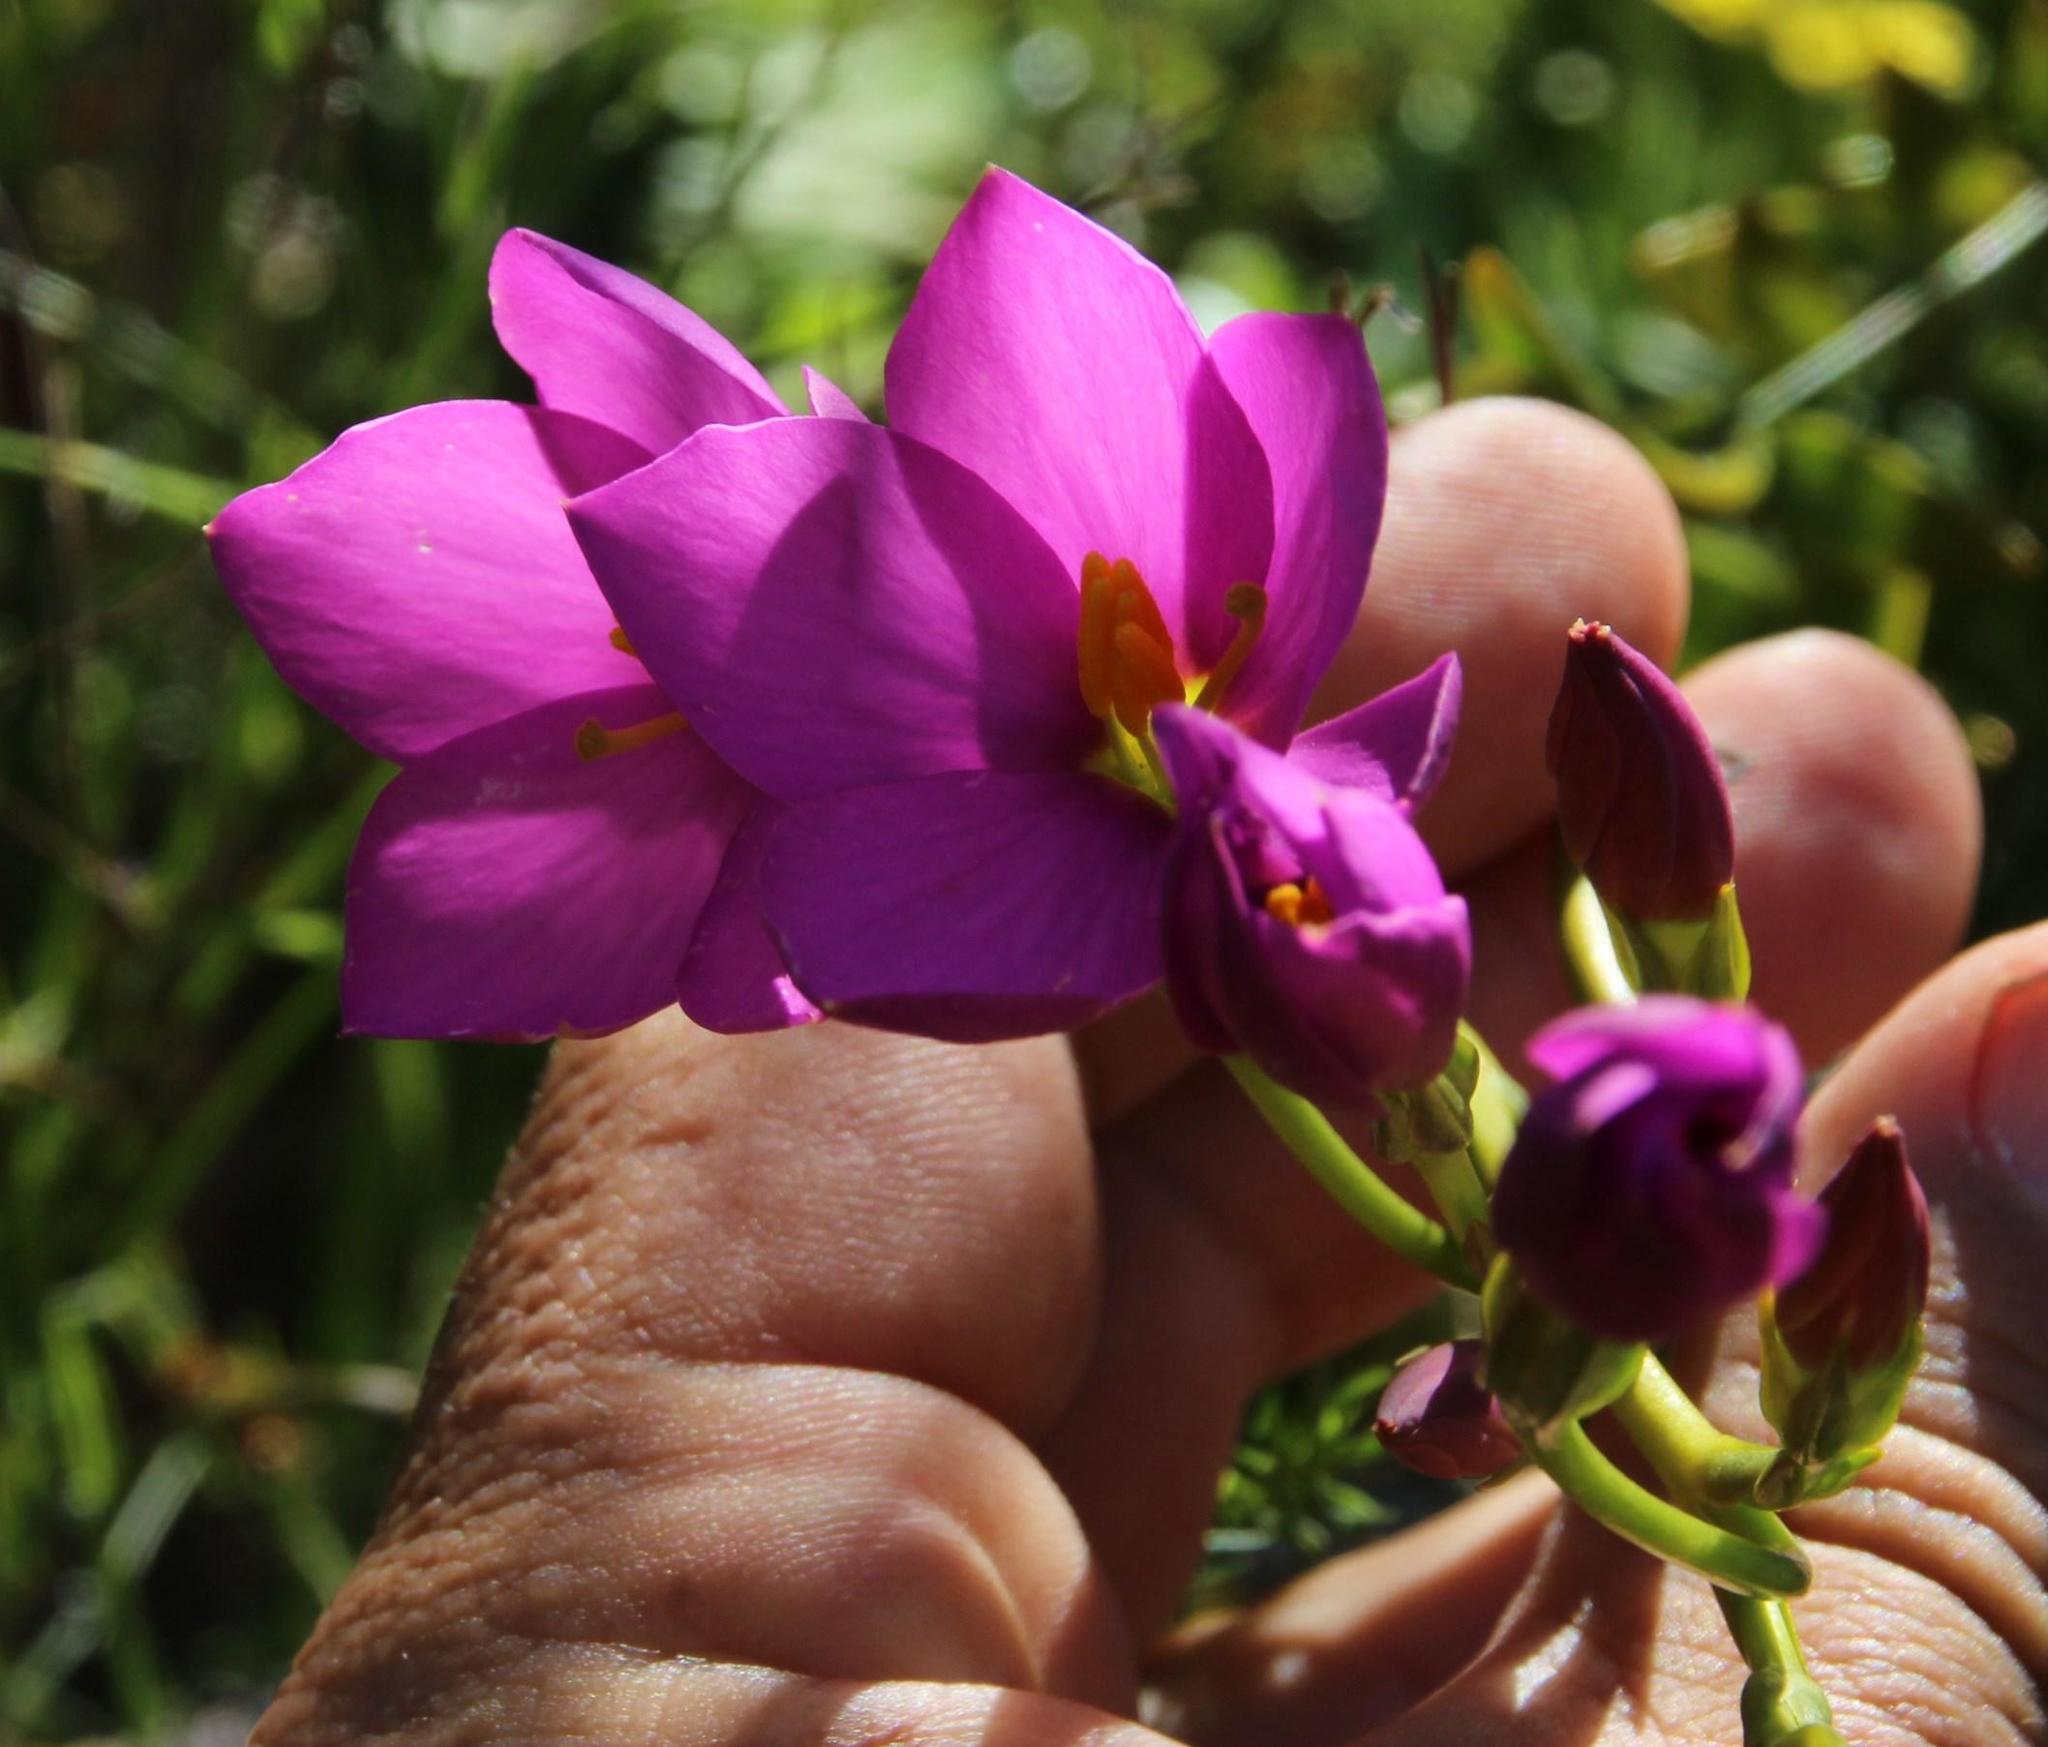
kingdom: Plantae
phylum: Tracheophyta
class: Magnoliopsida
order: Gentianales
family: Gentianaceae
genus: Chironia
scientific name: Chironia jasminoides
